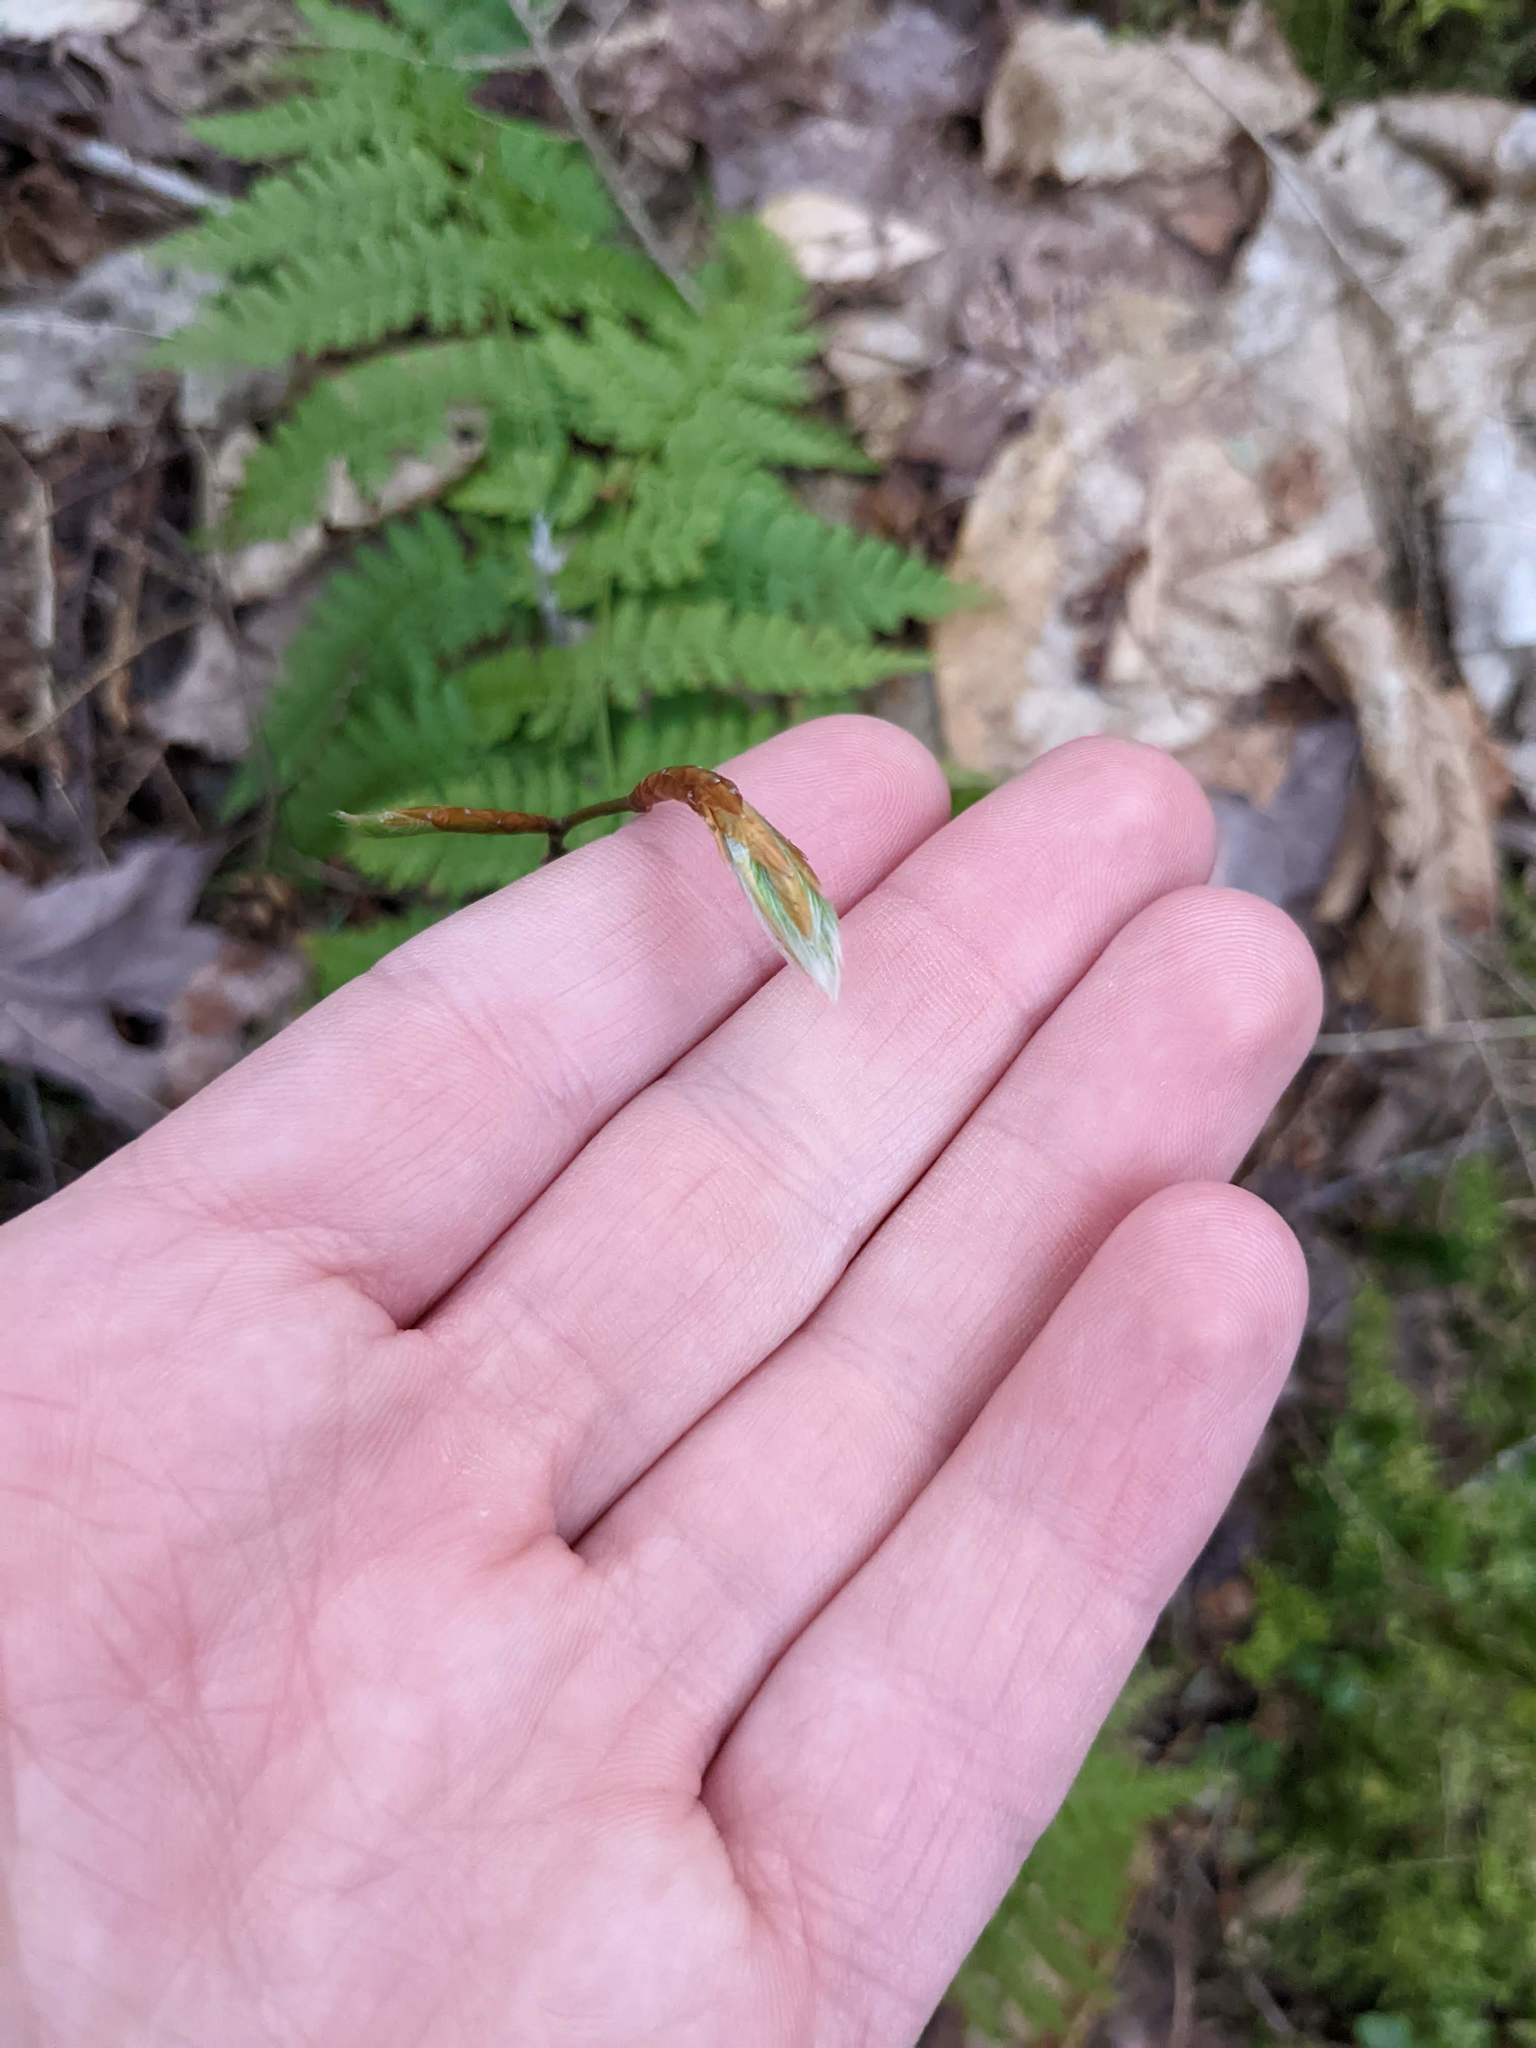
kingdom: Plantae
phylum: Tracheophyta
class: Magnoliopsida
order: Fagales
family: Fagaceae
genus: Fagus
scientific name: Fagus grandifolia
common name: American beech
